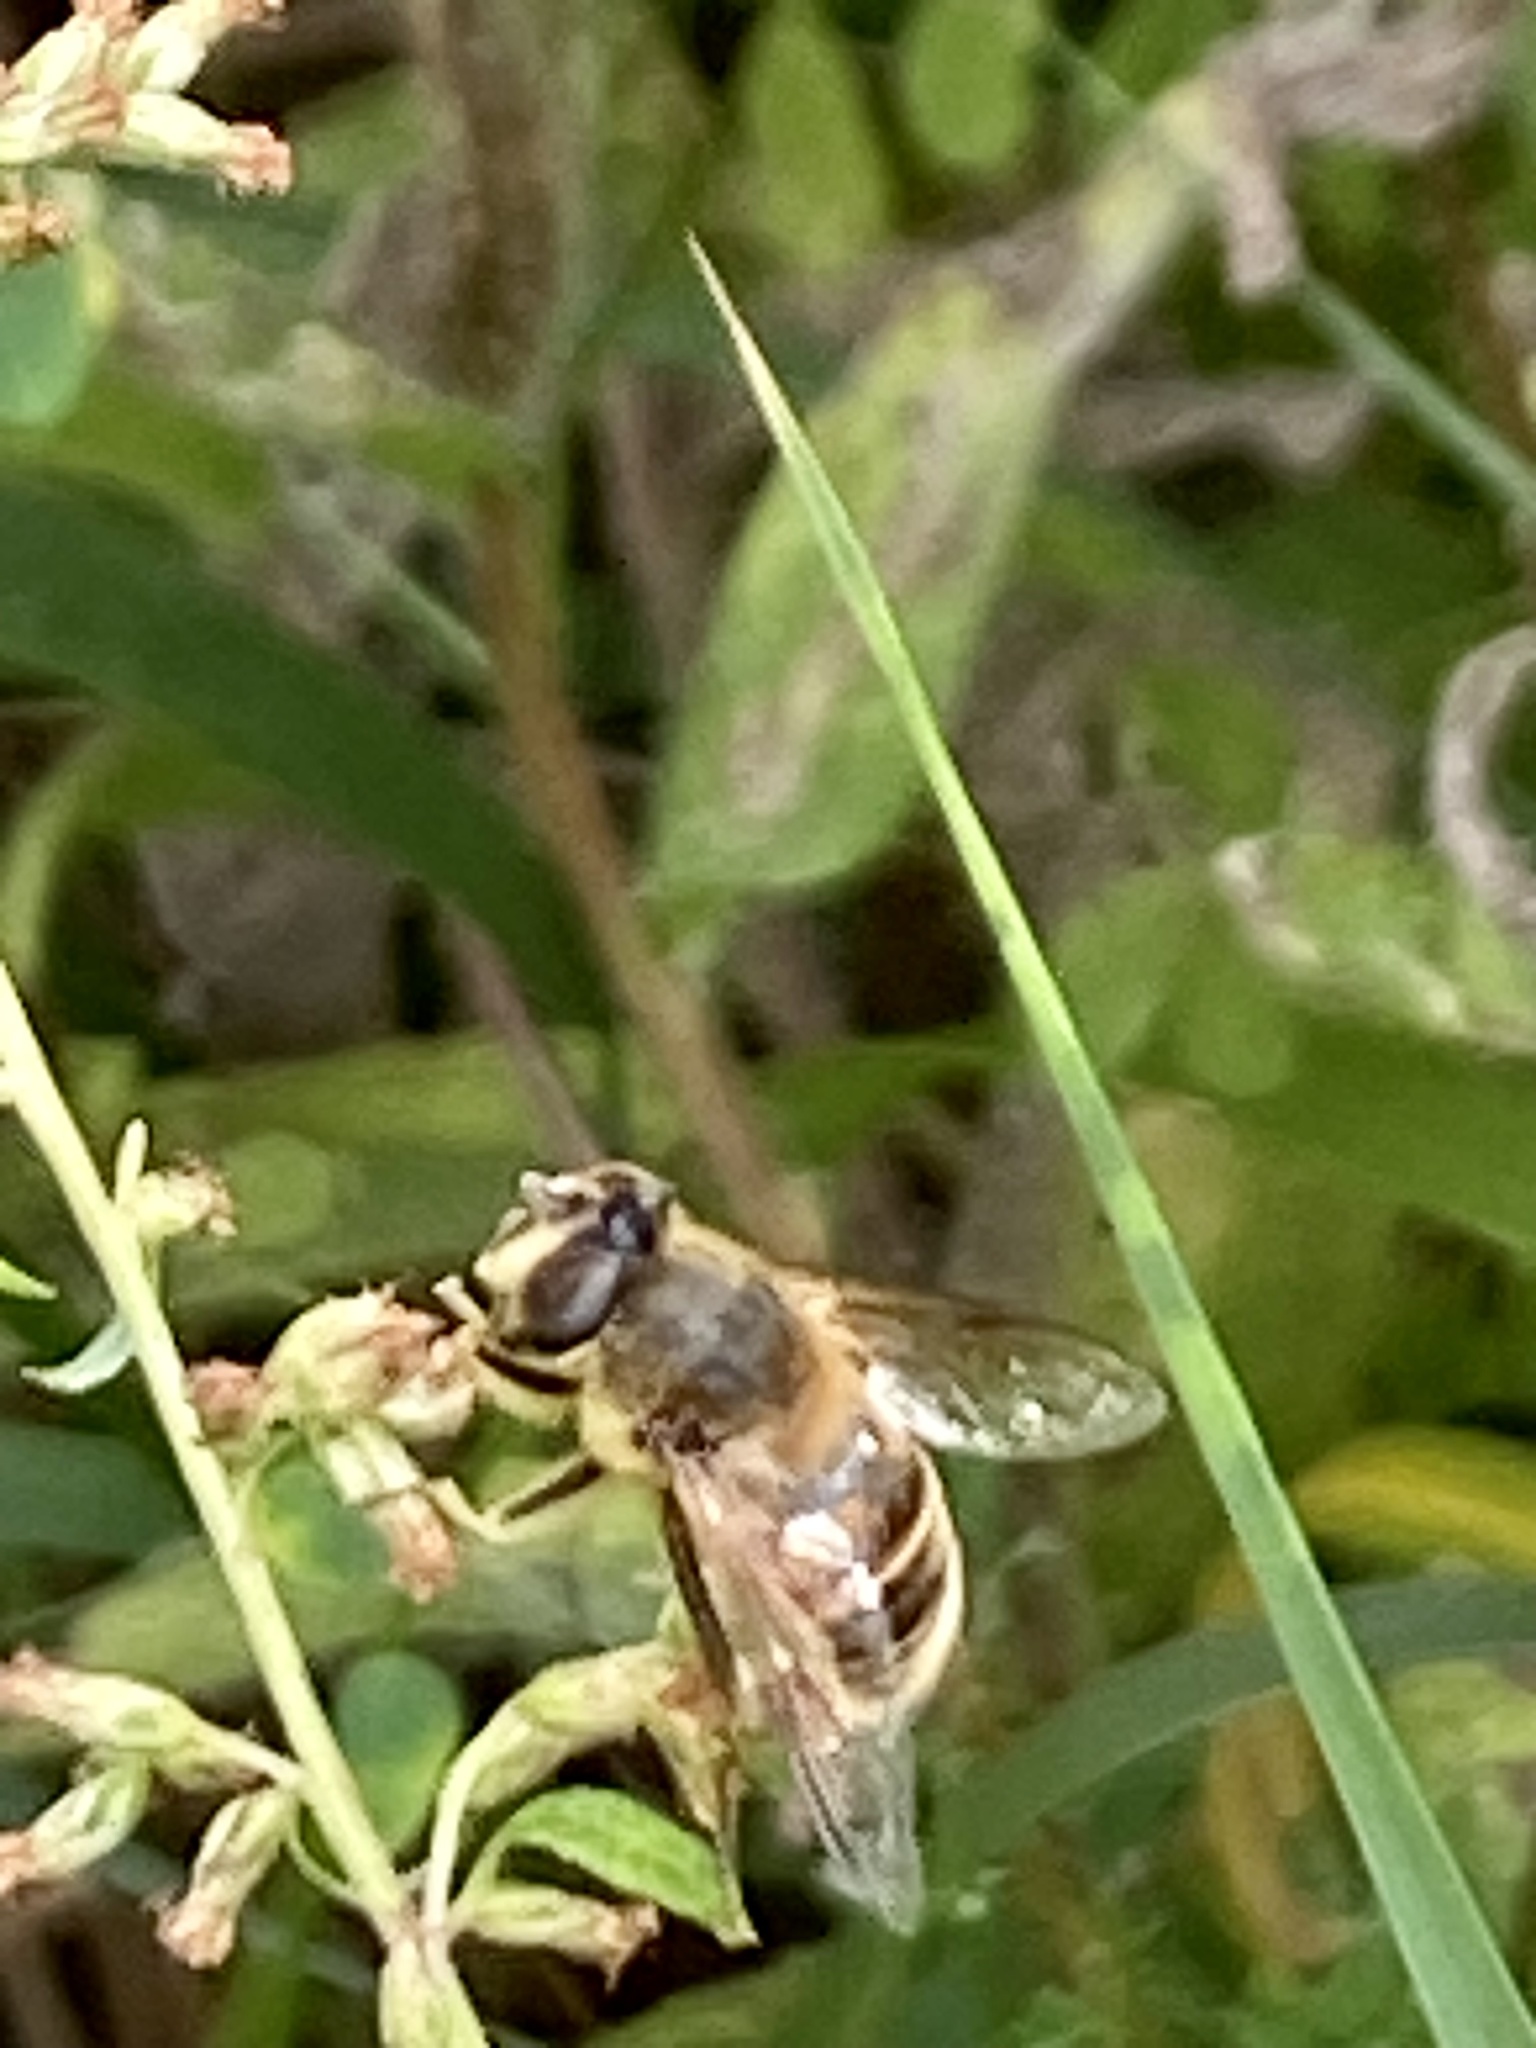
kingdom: Animalia
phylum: Arthropoda
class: Insecta
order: Diptera
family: Syrphidae
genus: Eristalis
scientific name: Eristalis tenax
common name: Drone fly
